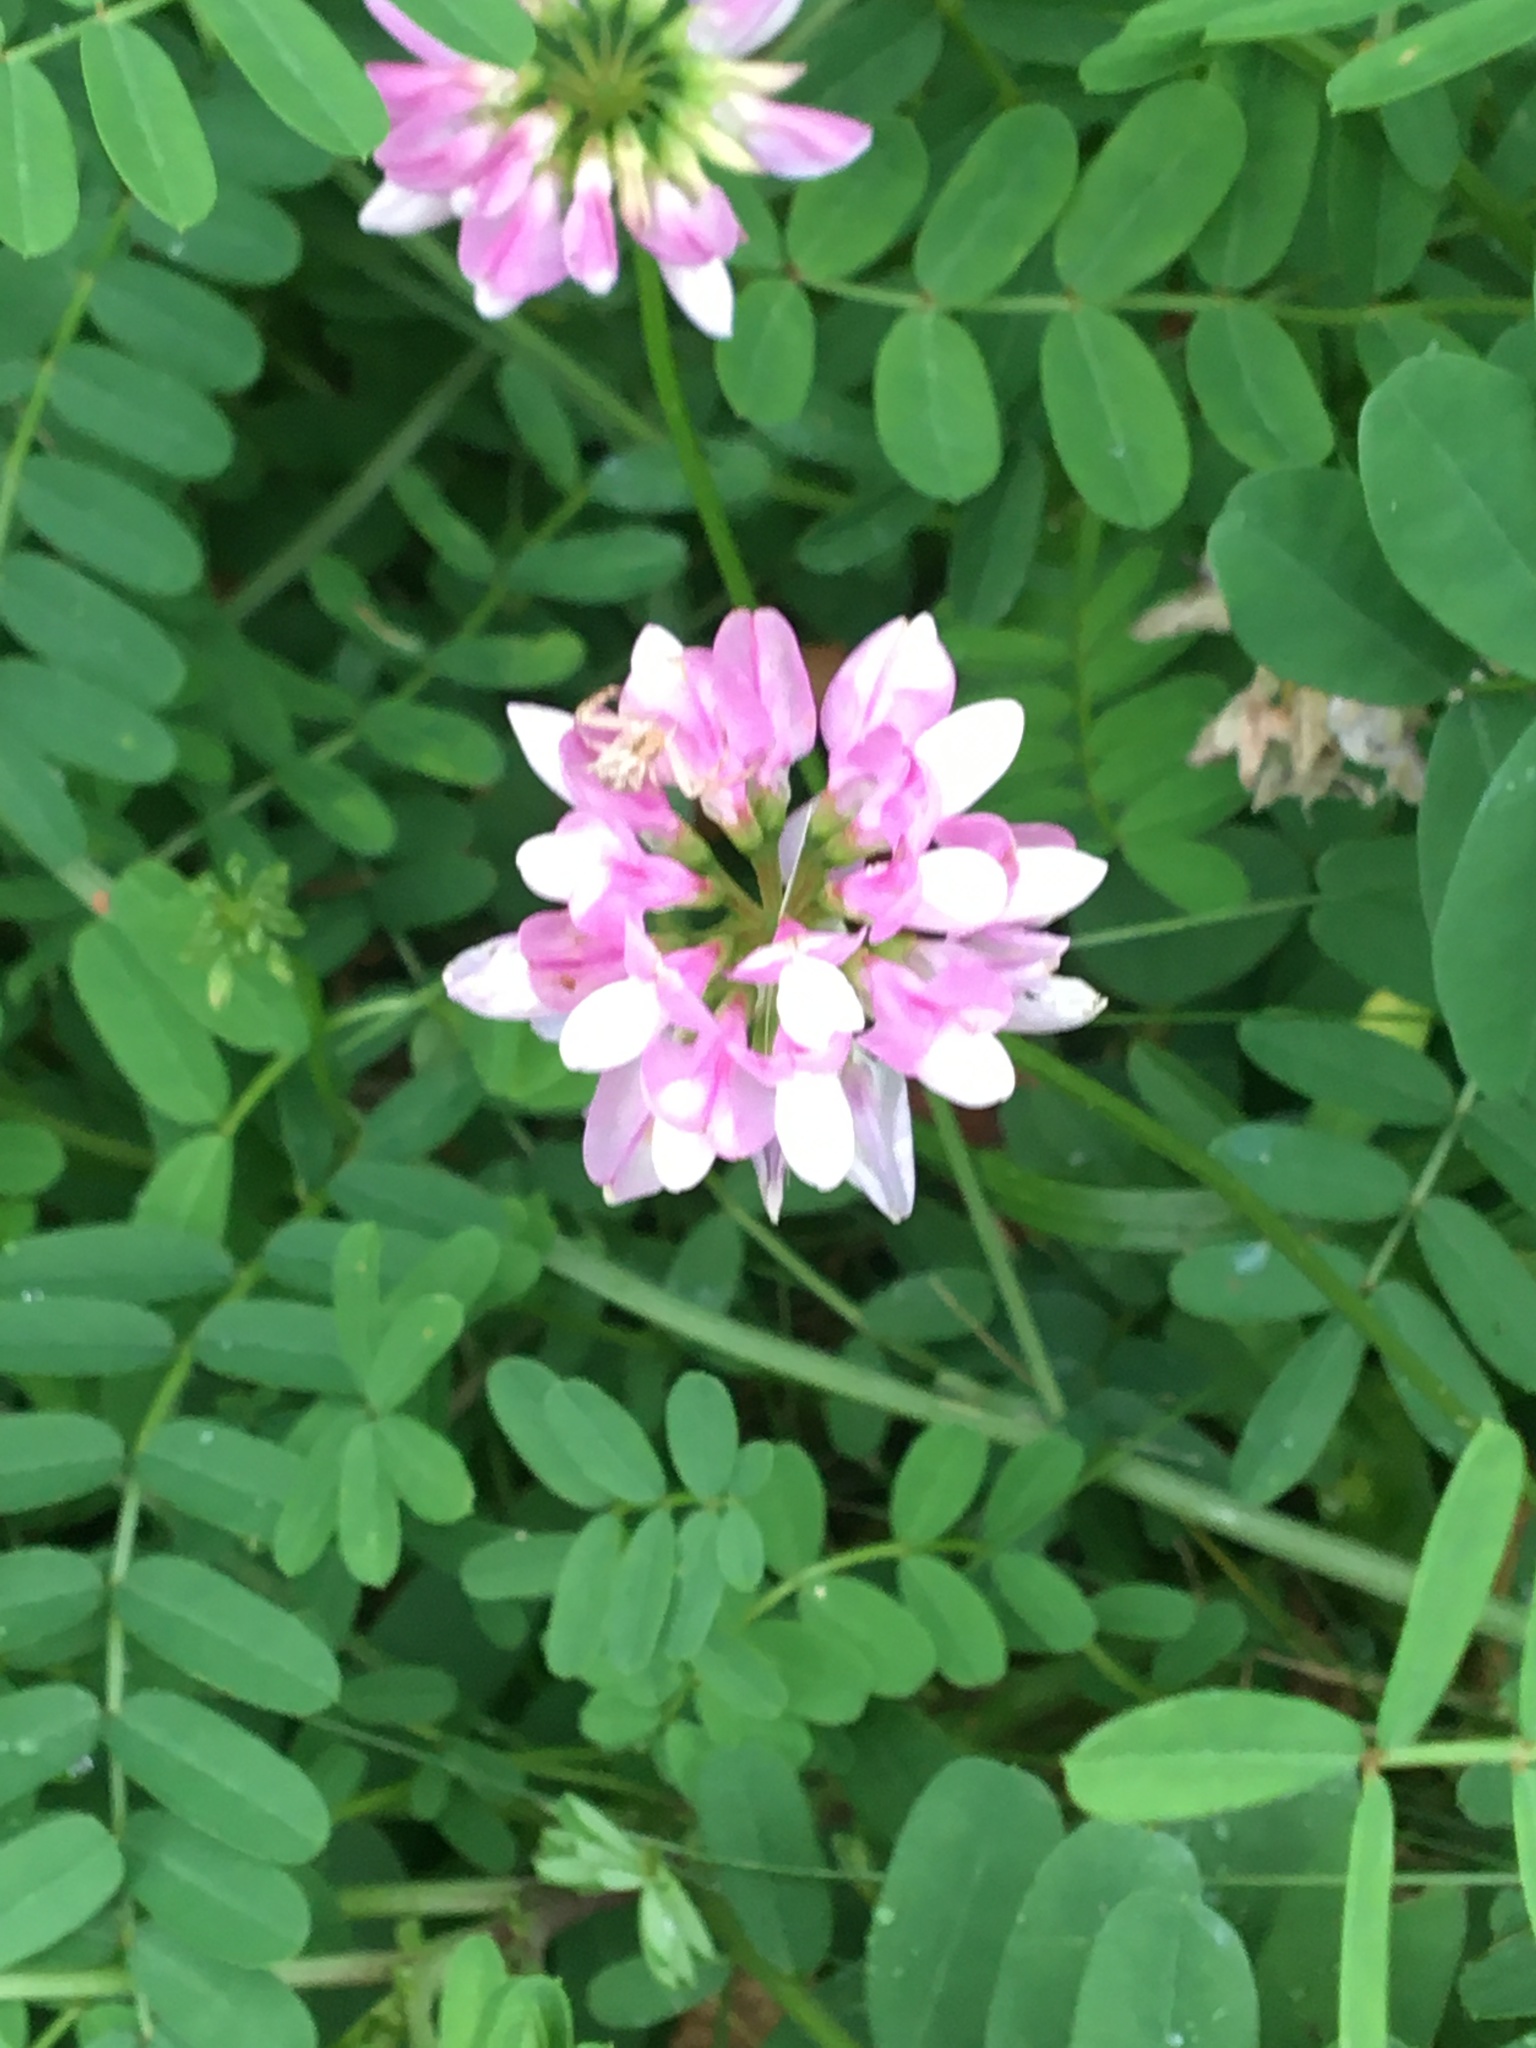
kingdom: Plantae
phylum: Tracheophyta
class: Magnoliopsida
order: Fabales
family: Fabaceae
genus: Coronilla
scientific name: Coronilla varia
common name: Crownvetch
